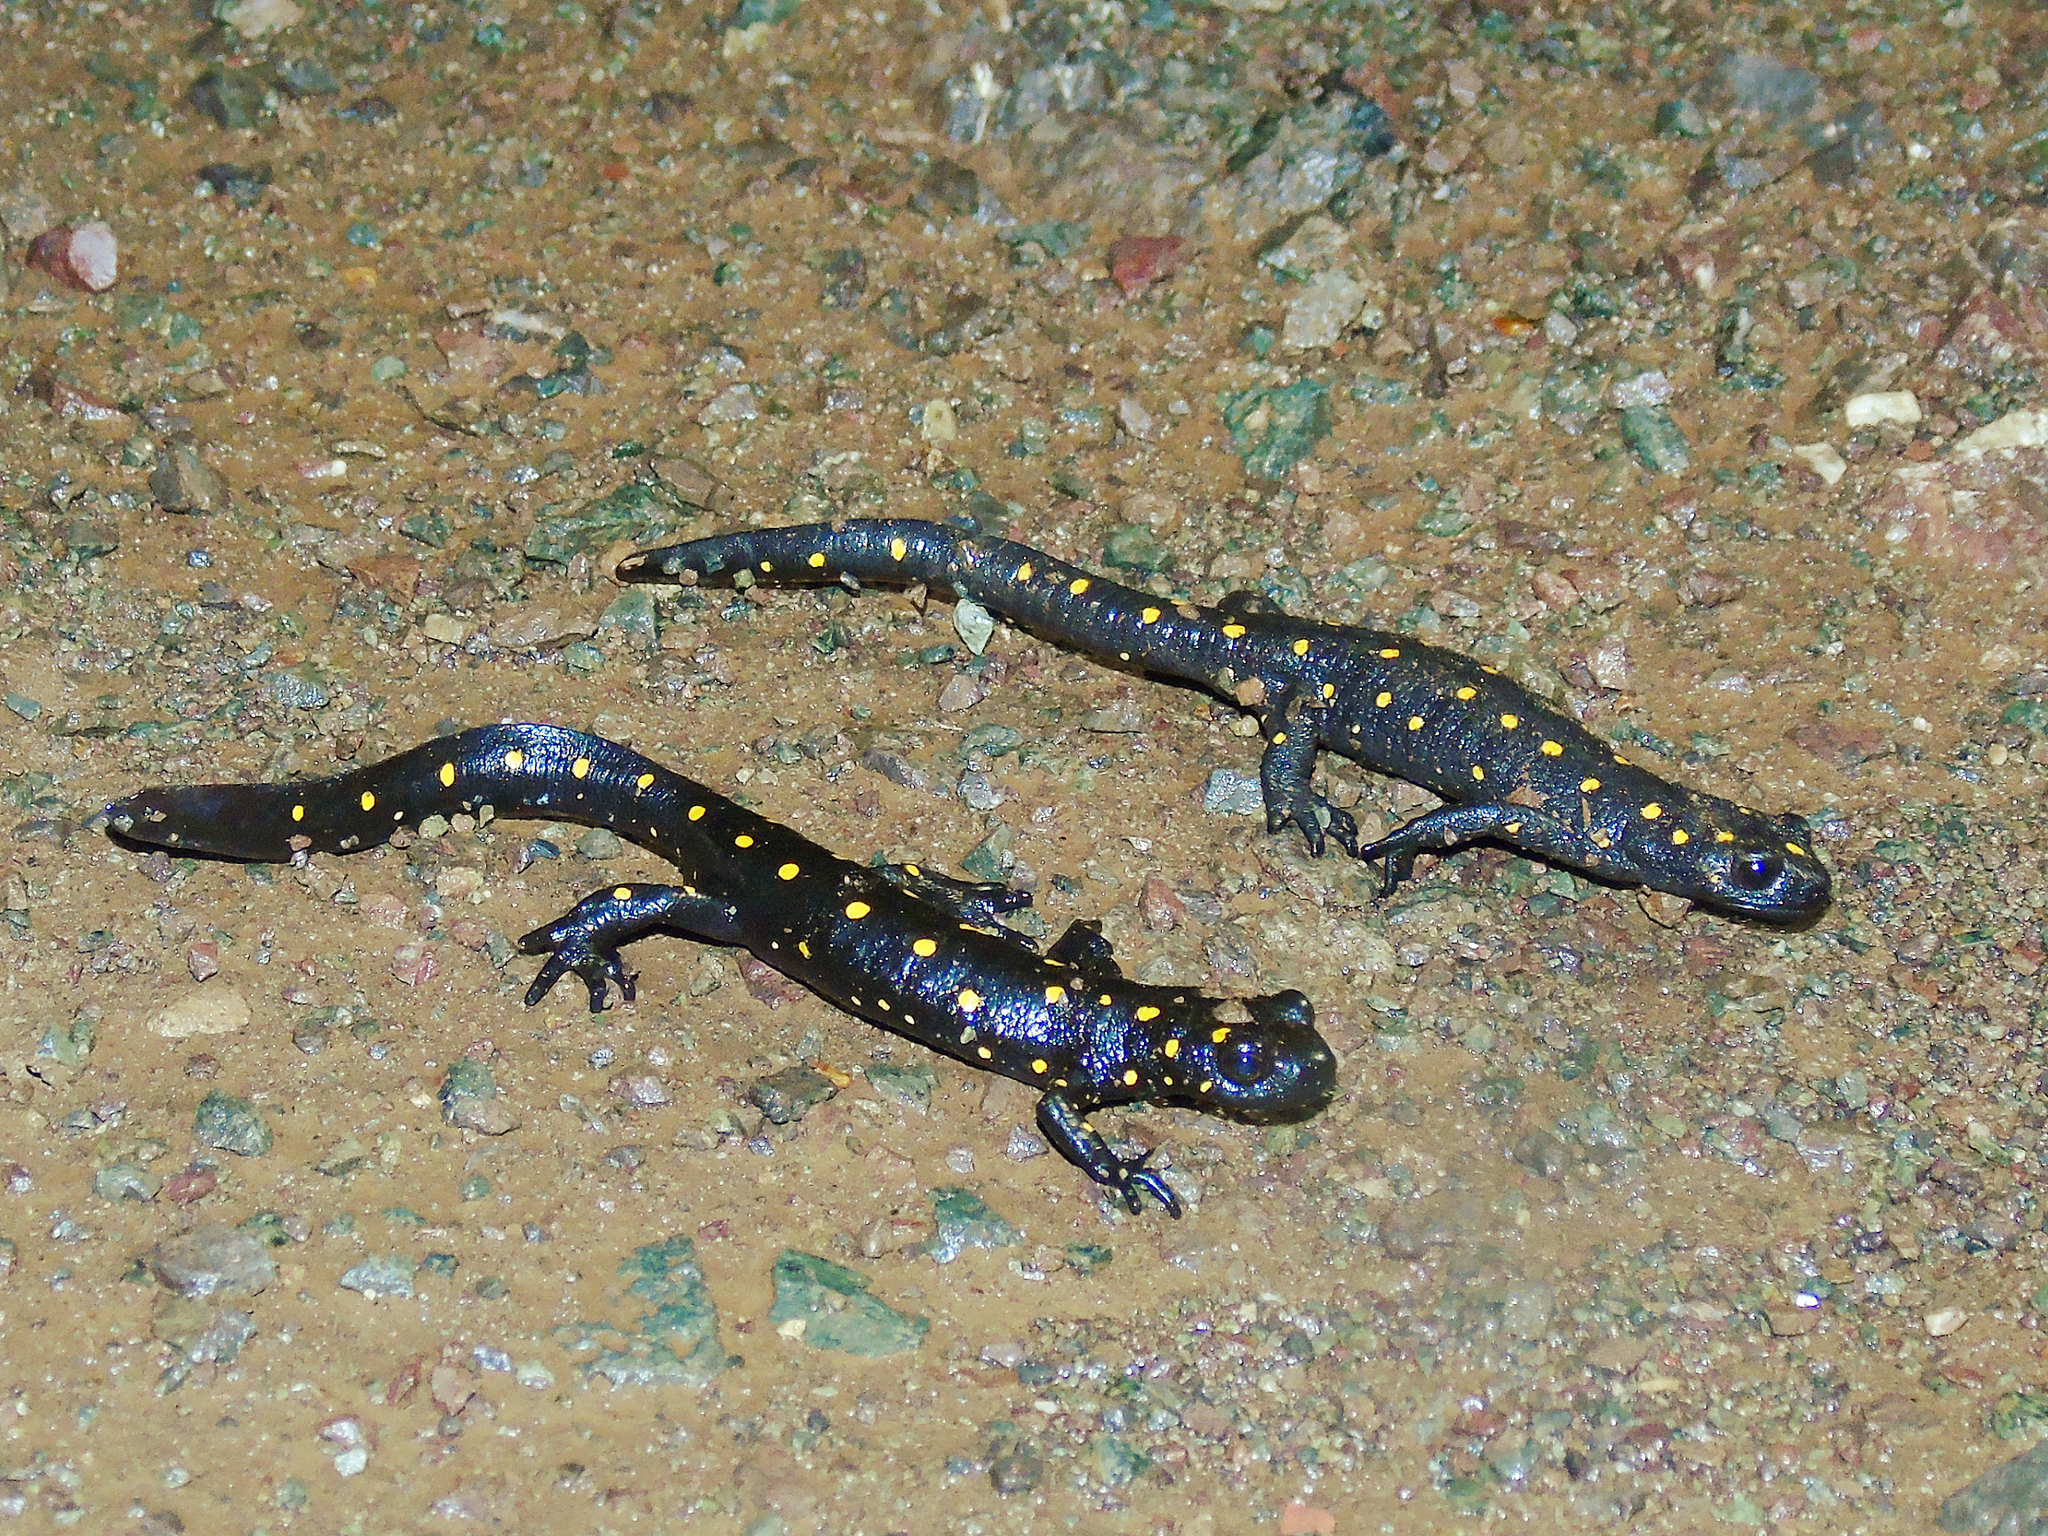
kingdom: Animalia
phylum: Chordata
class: Amphibia
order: Caudata
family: Salamandridae
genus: Neurergus
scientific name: Neurergus barani
